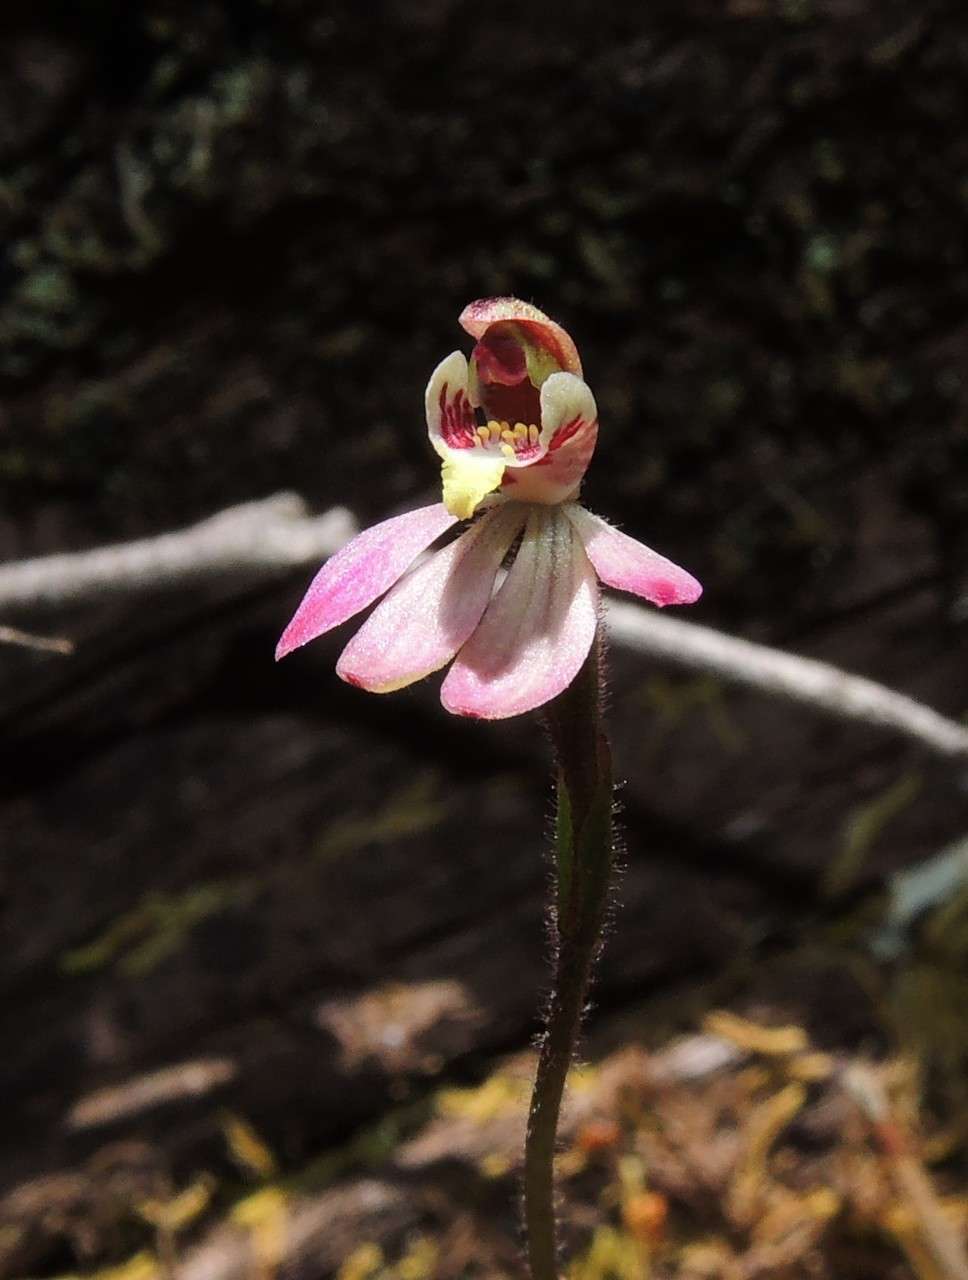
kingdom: Plantae
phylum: Tracheophyta
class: Liliopsida
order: Asparagales
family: Orchidaceae
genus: Caladenia
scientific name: Caladenia pusilla
